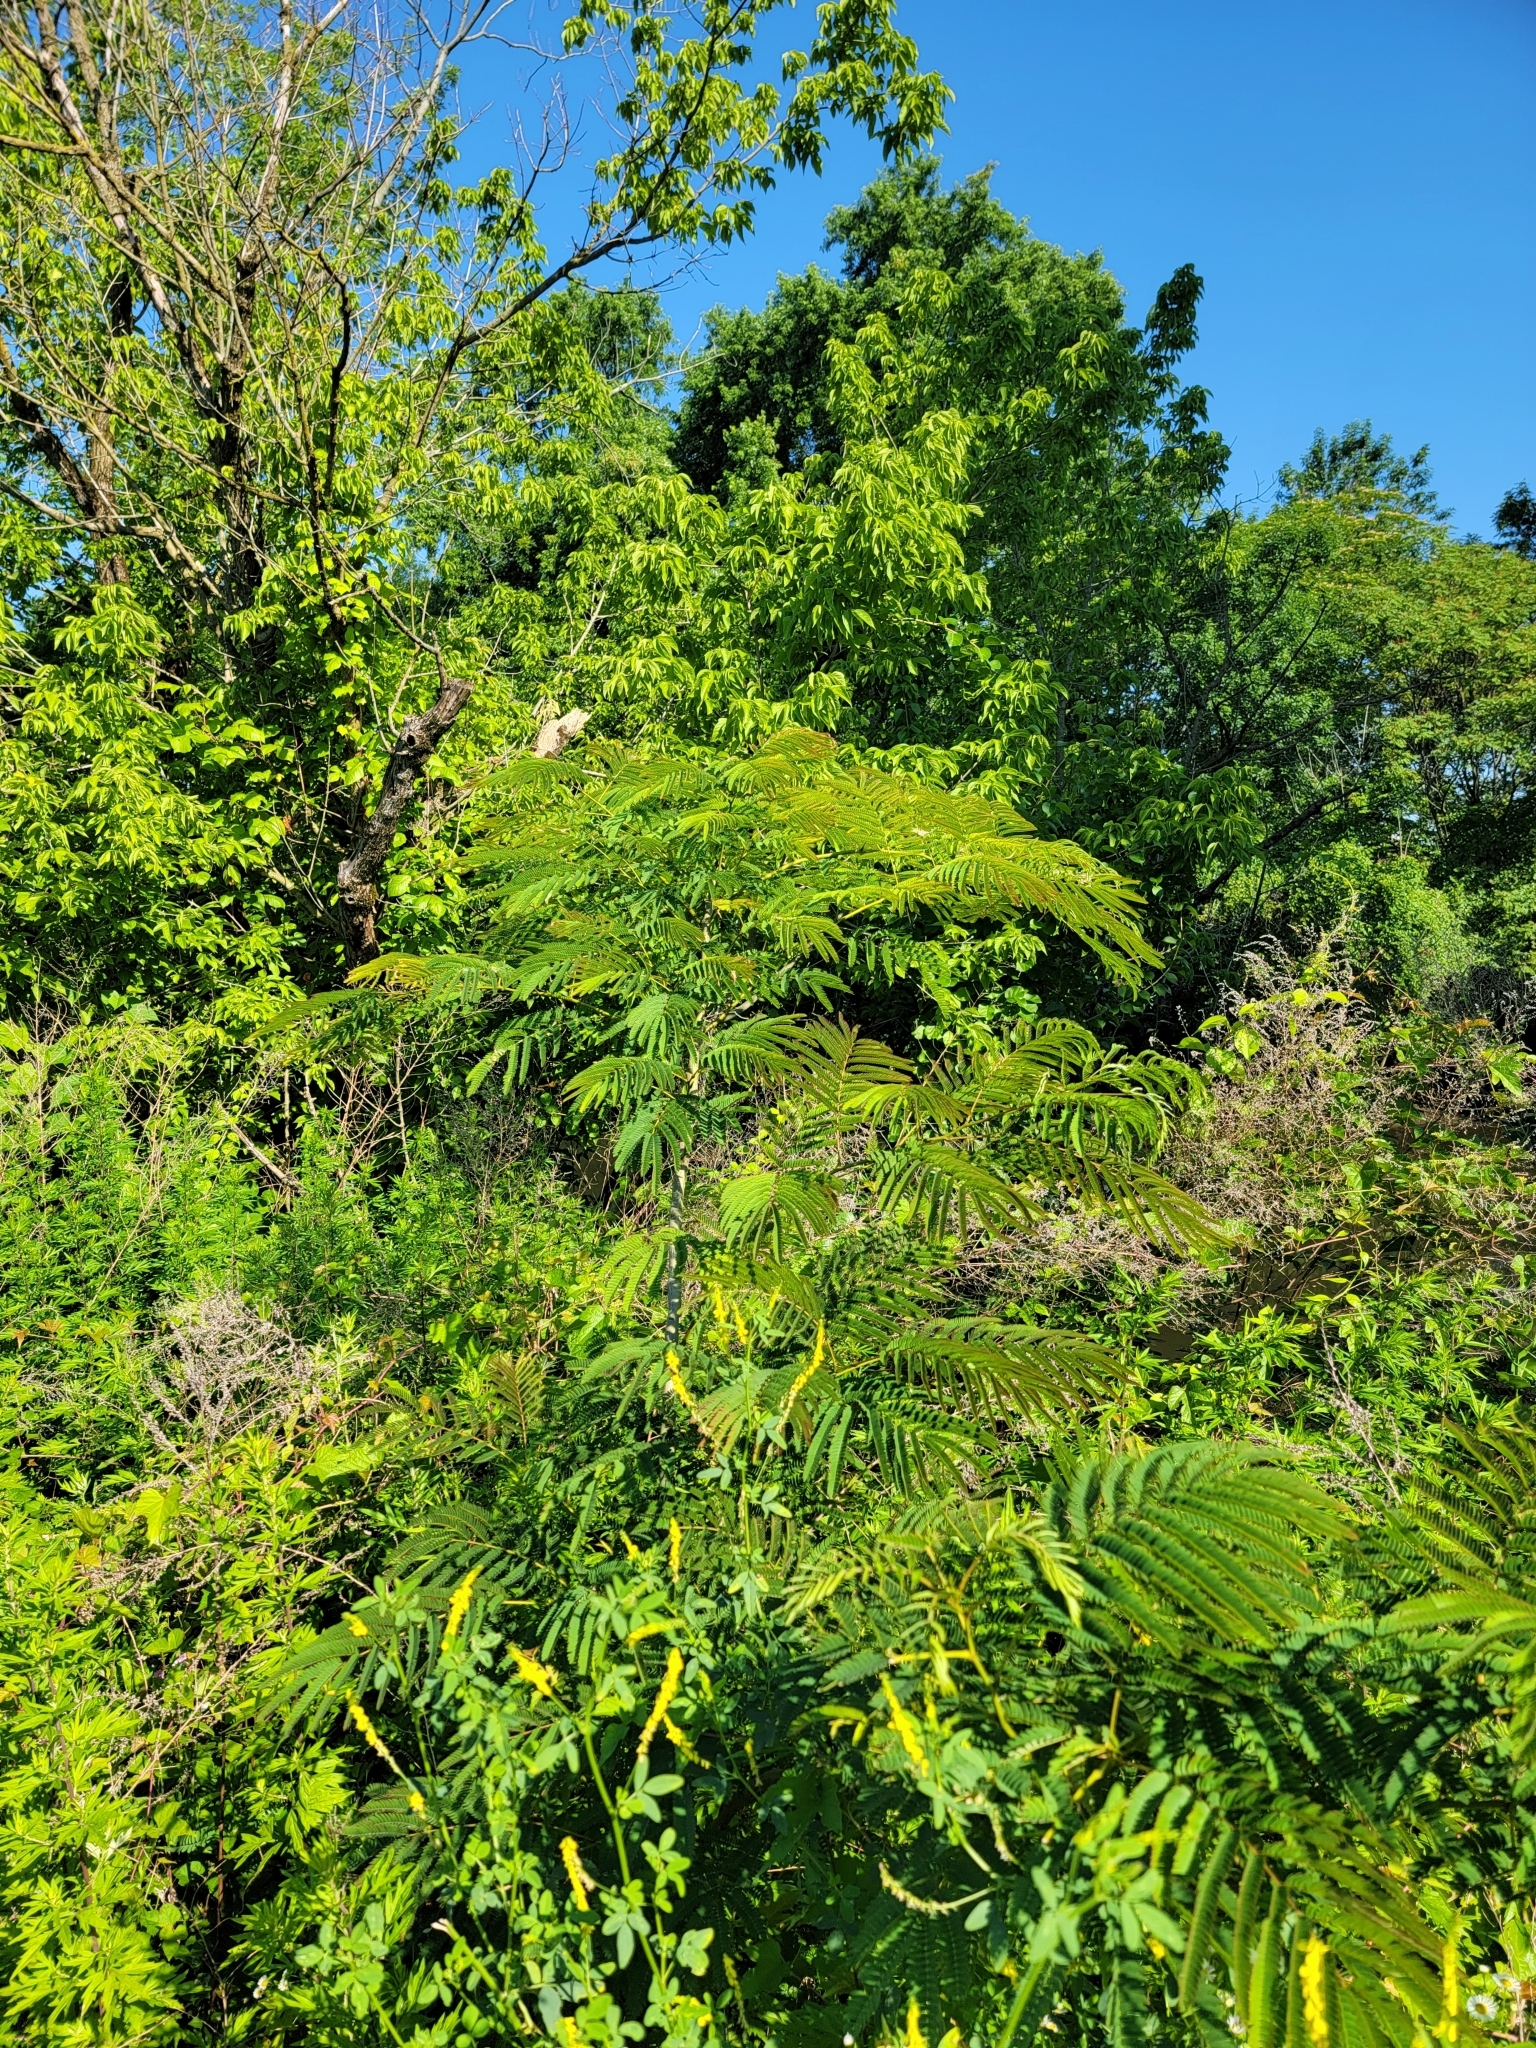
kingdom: Plantae
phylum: Tracheophyta
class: Magnoliopsida
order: Fabales
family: Fabaceae
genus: Albizia
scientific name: Albizia julibrissin
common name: Silktree
